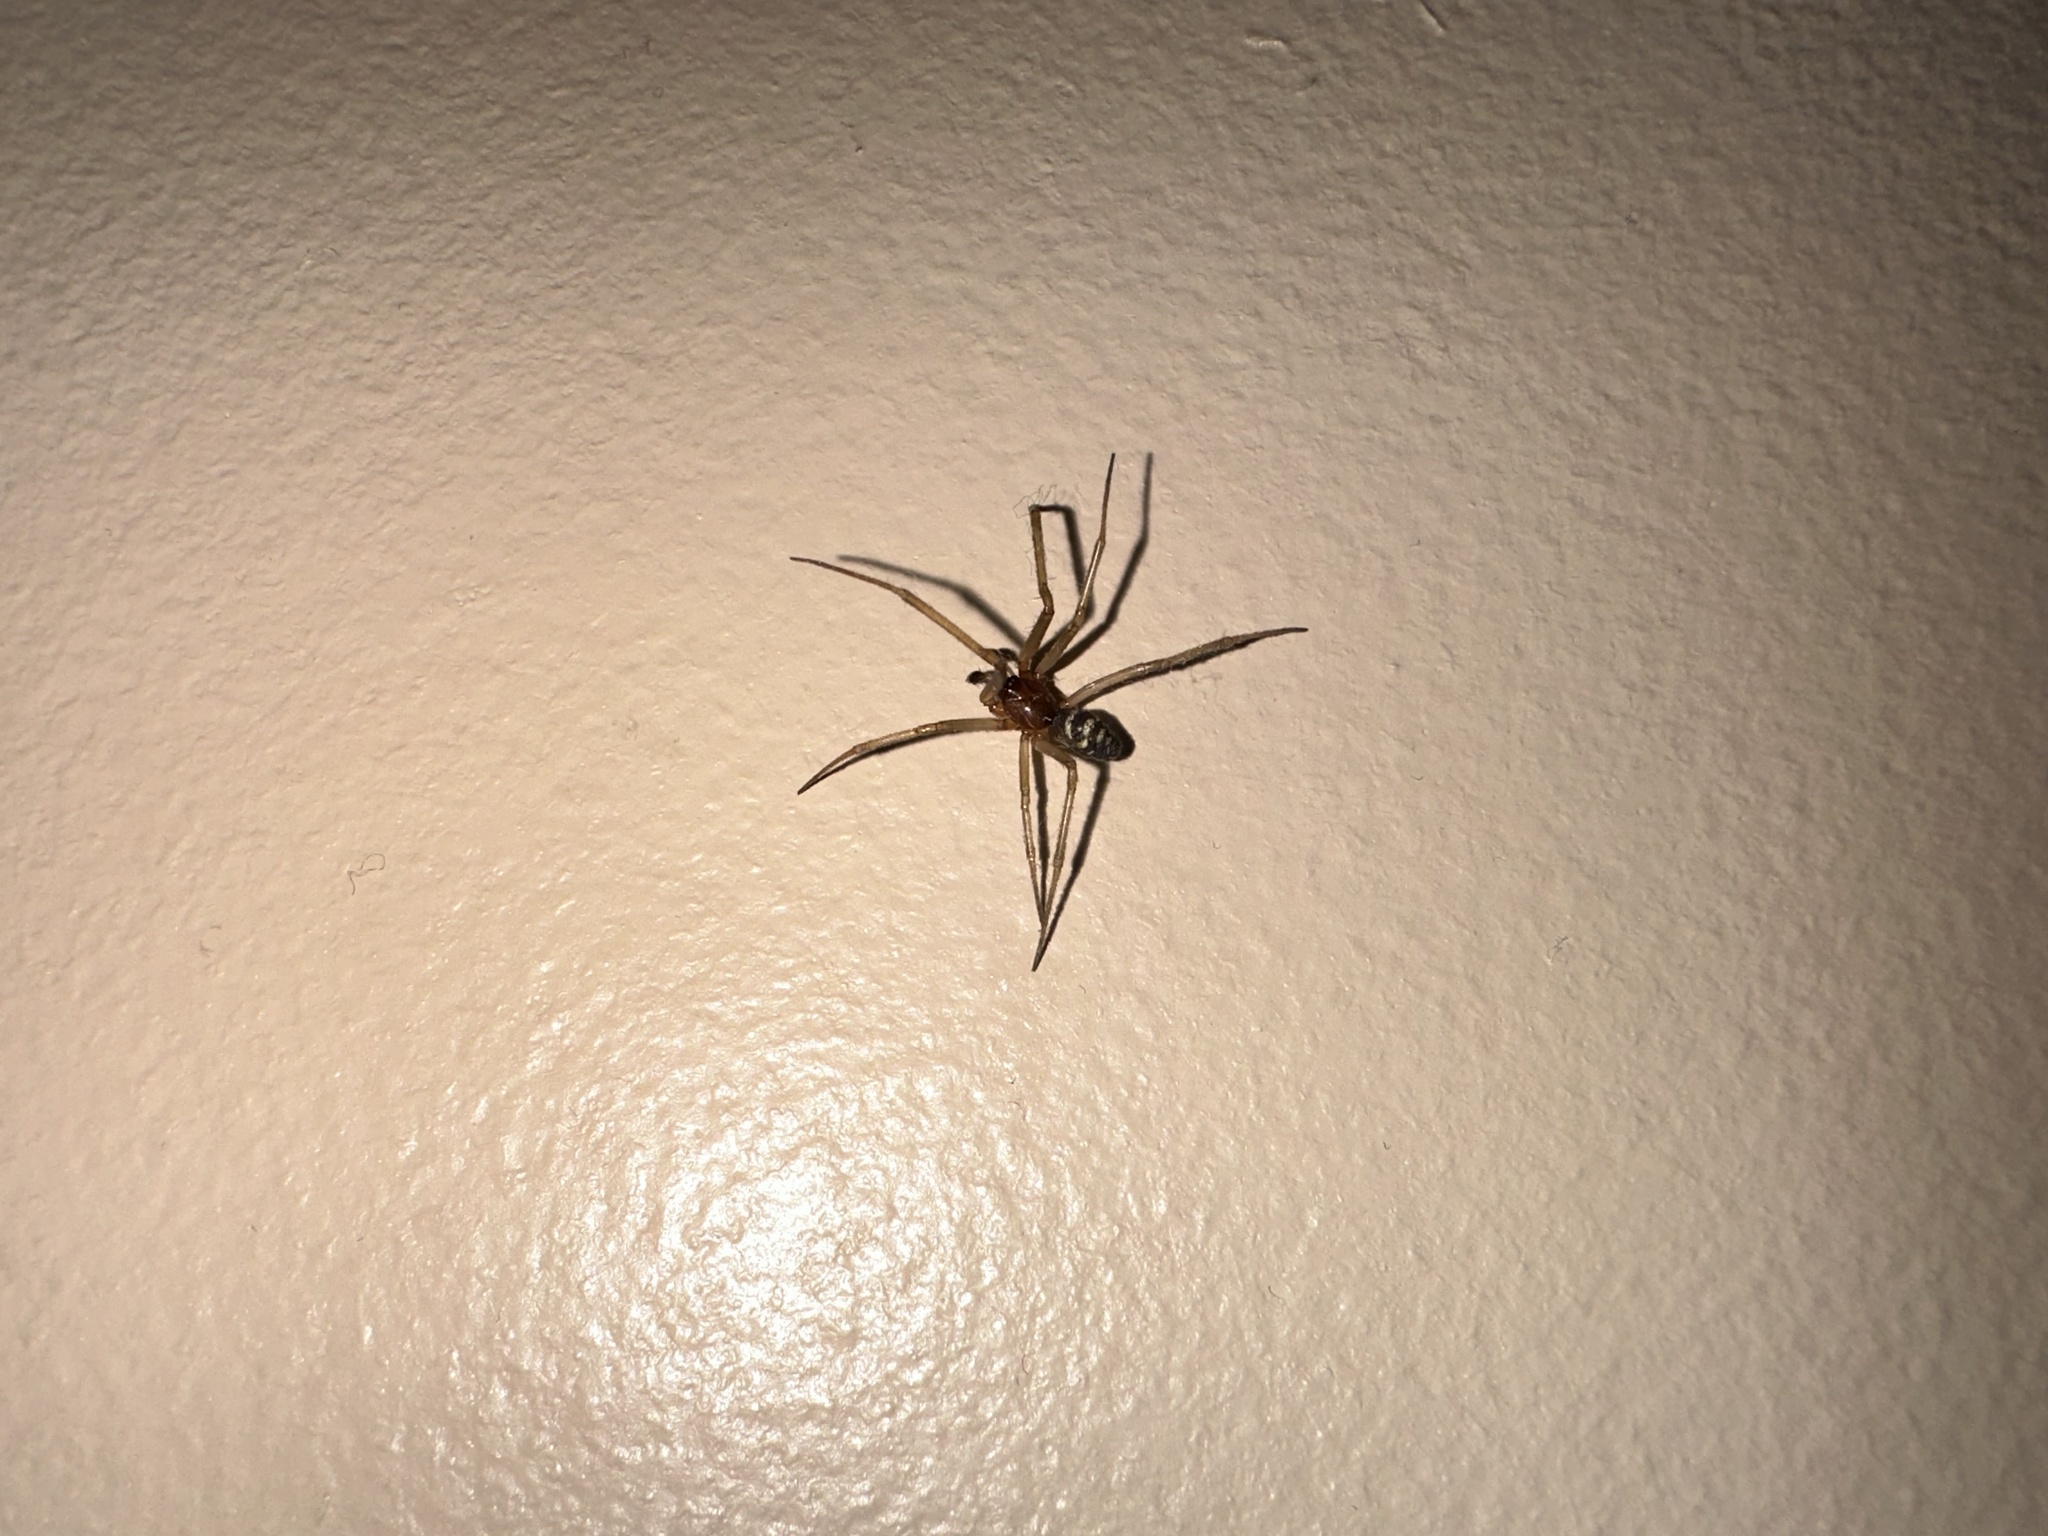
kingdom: Animalia
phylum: Arthropoda
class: Arachnida
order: Araneae
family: Theridiidae
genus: Steatoda
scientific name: Steatoda grossa
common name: False black widow
